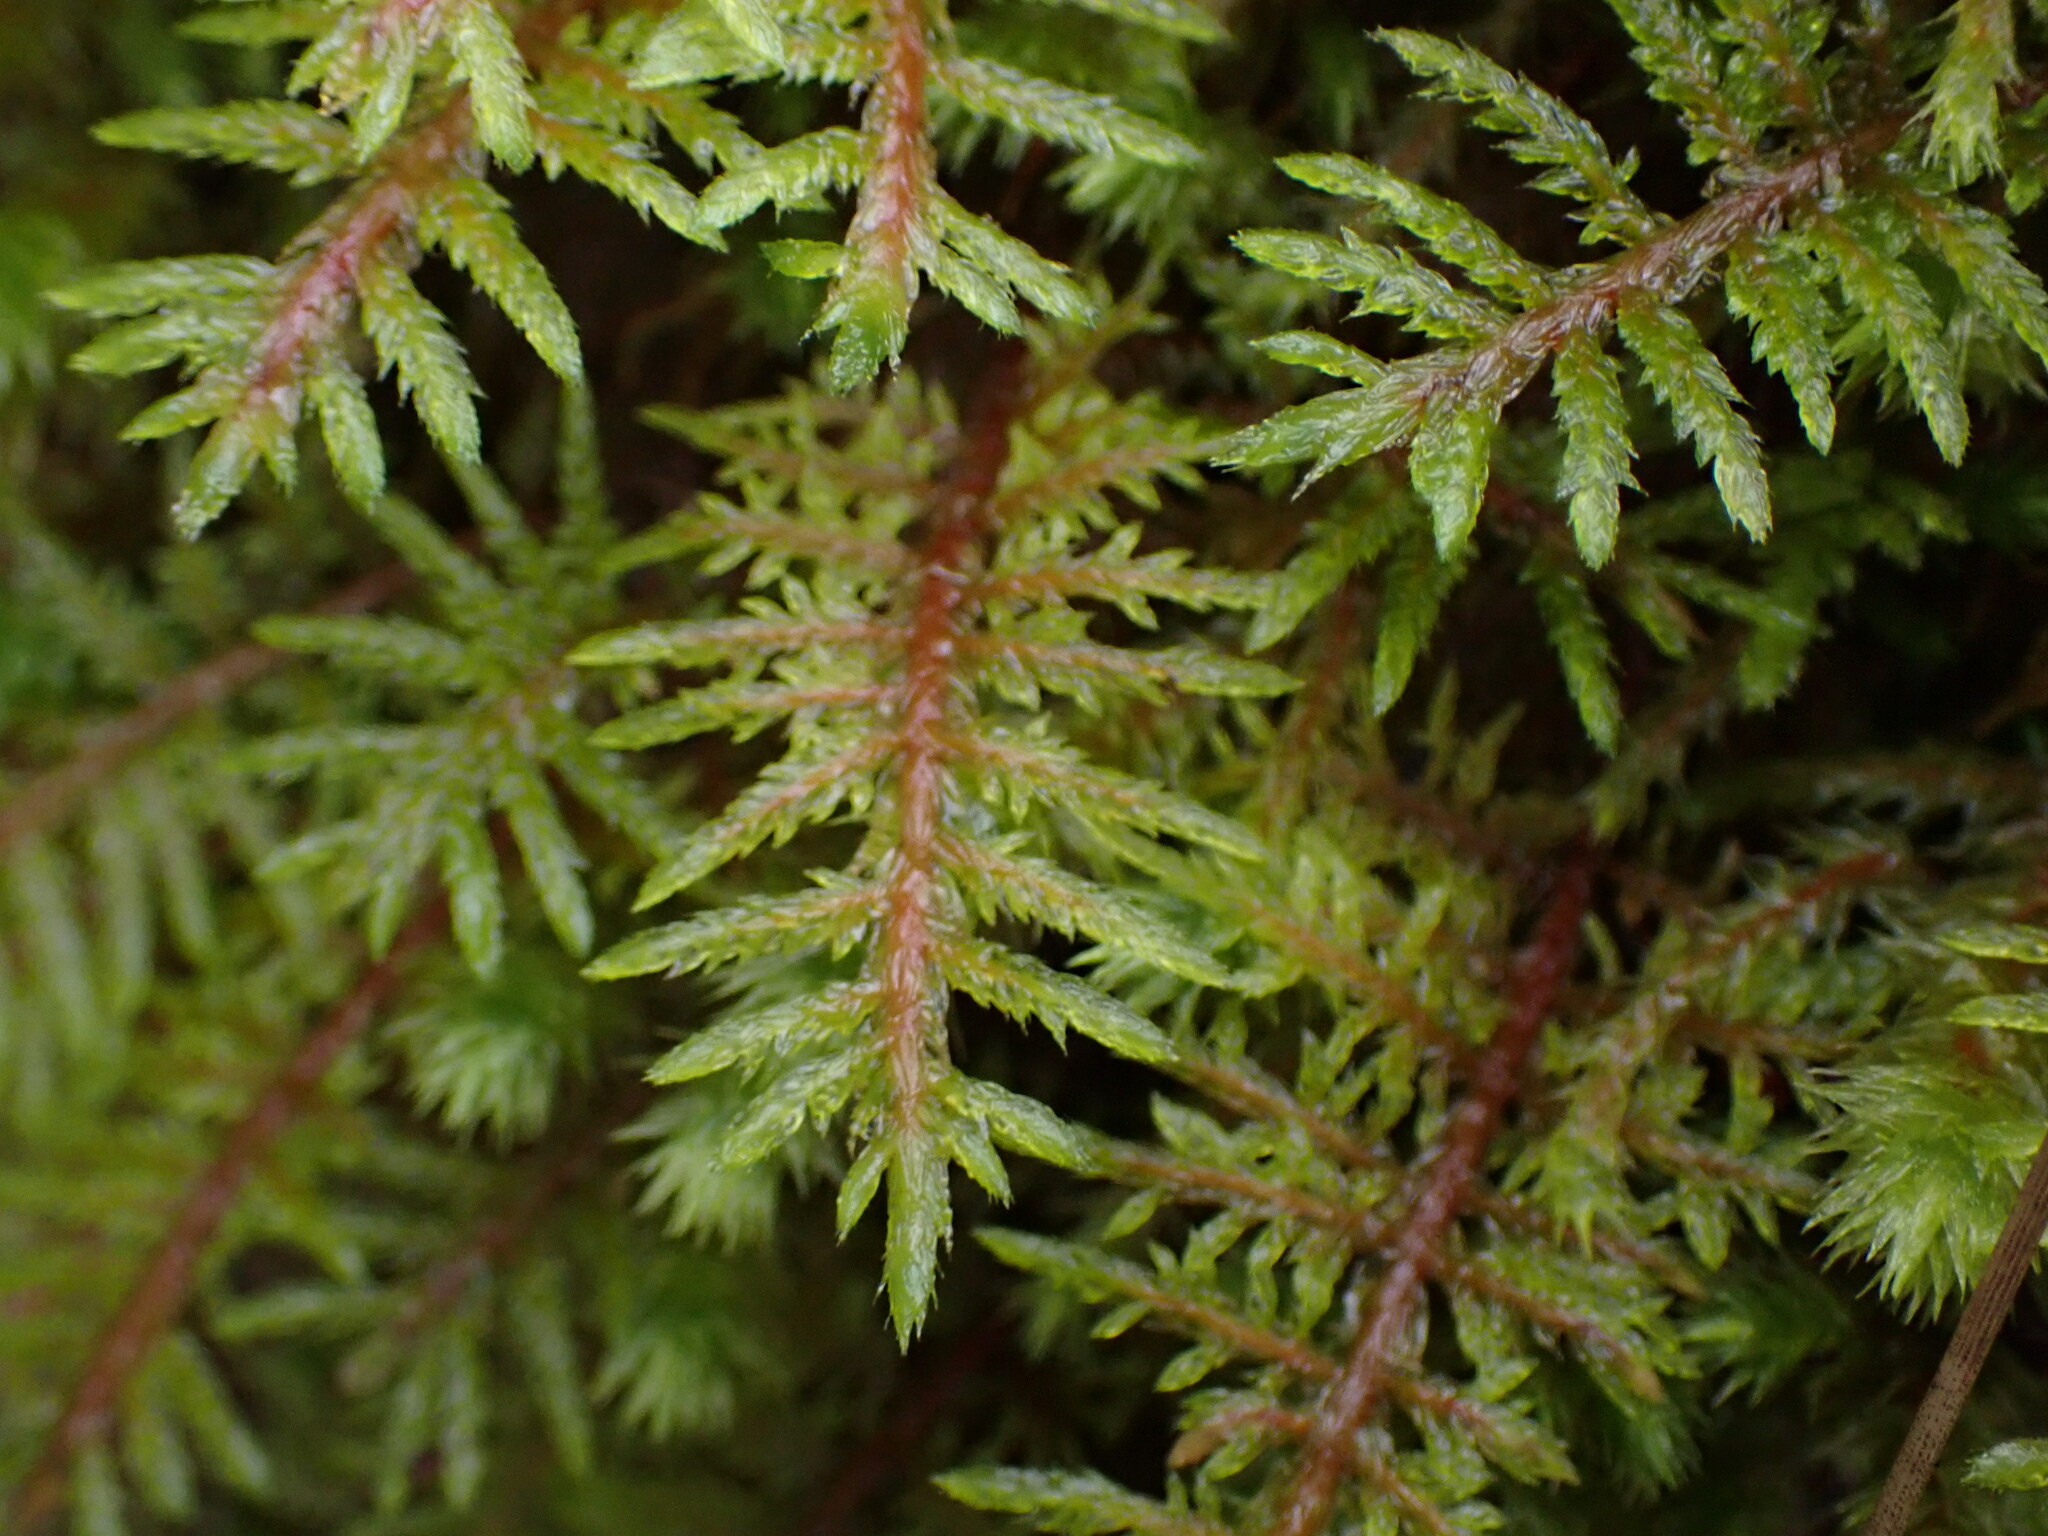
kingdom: Plantae
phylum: Bryophyta
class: Bryopsida
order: Hypnales
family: Hylocomiaceae
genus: Hylocomium
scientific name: Hylocomium splendens
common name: Stairstep moss
